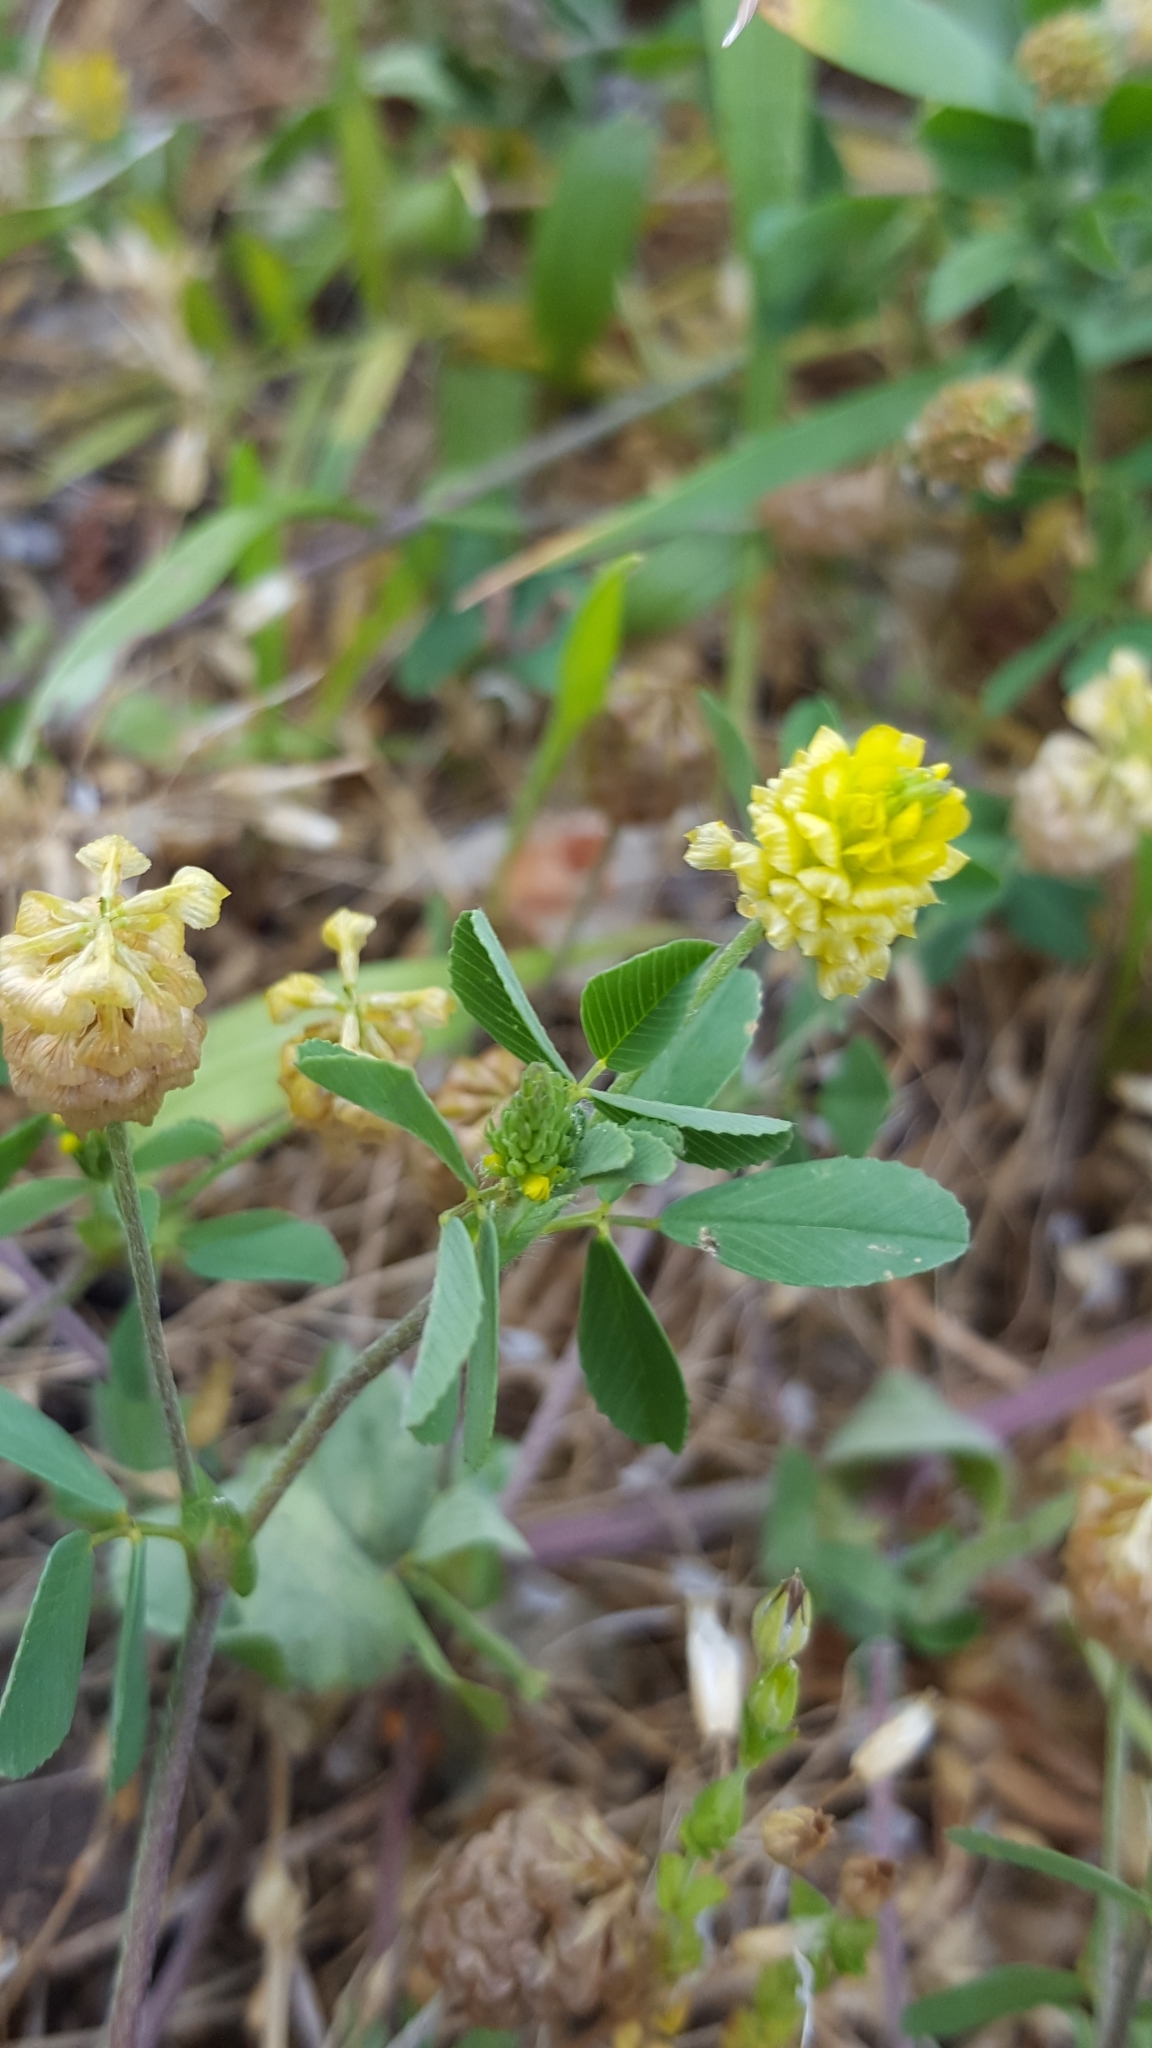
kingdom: Plantae
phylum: Tracheophyta
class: Magnoliopsida
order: Fabales
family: Fabaceae
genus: Trifolium
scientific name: Trifolium campestre
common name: Field clover
